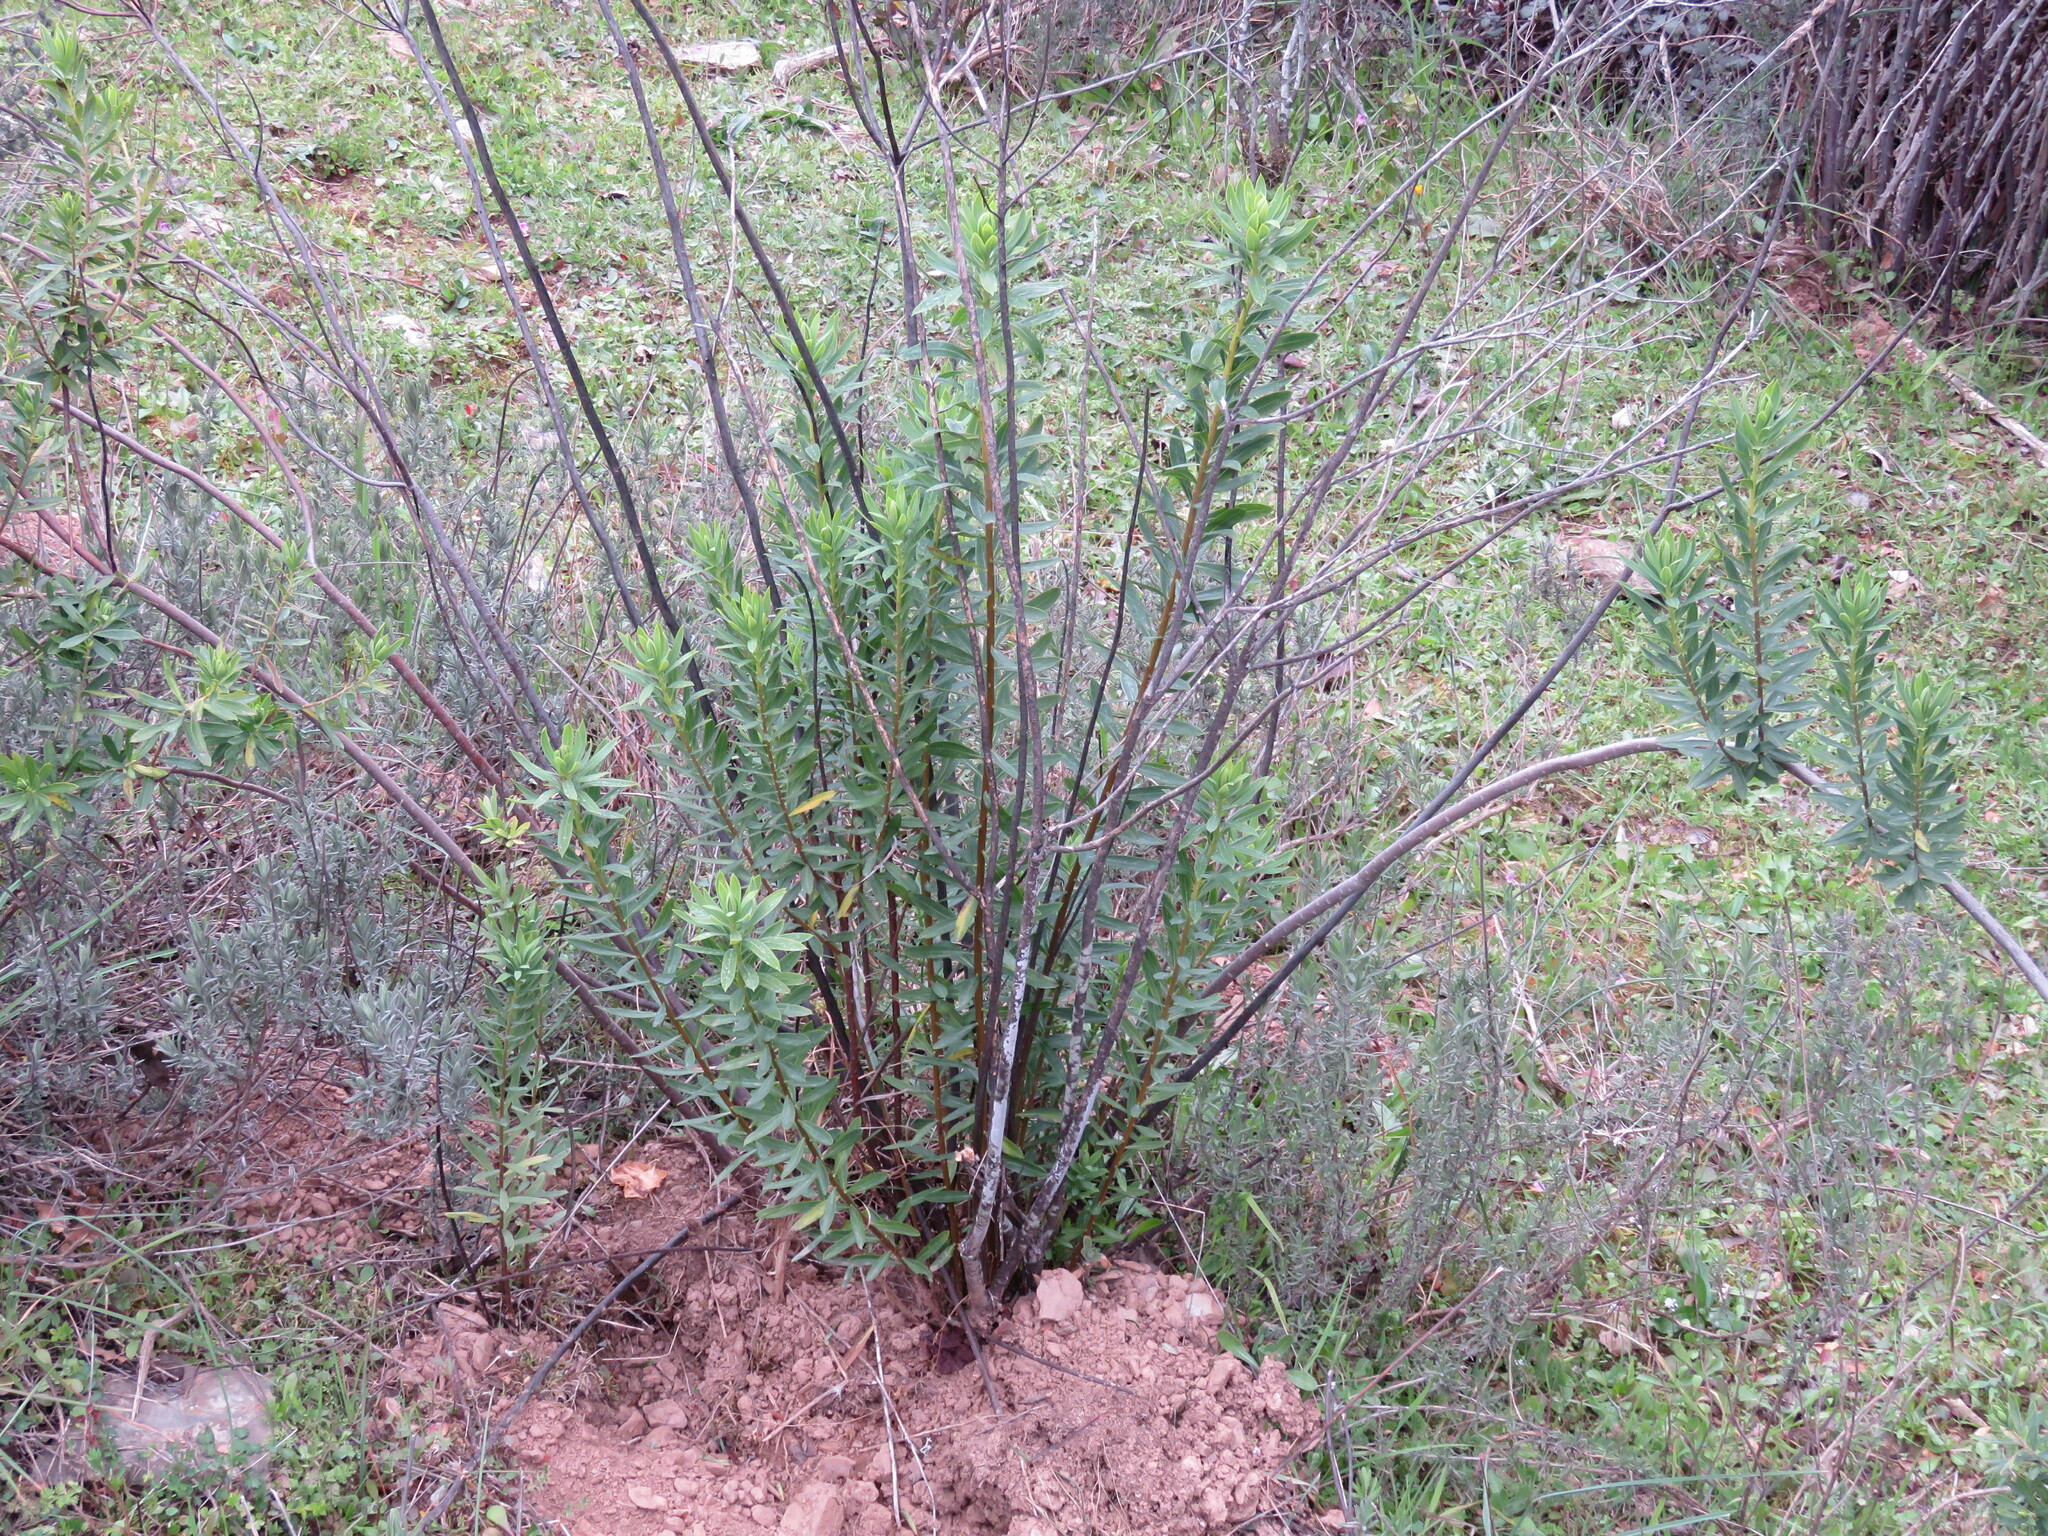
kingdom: Plantae
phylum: Tracheophyta
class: Magnoliopsida
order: Malvales
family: Thymelaeaceae
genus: Daphne
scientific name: Daphne gnidium
